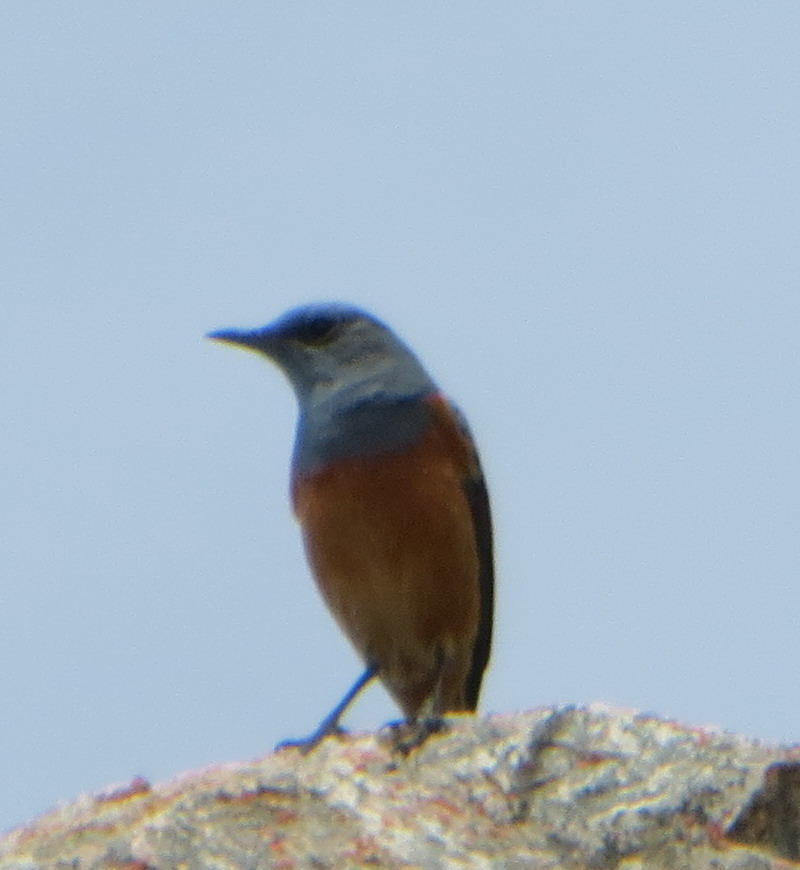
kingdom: Animalia
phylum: Chordata
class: Aves
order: Passeriformes
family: Muscicapidae
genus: Monticola
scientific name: Monticola explorator
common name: Sentinel rock thrush
